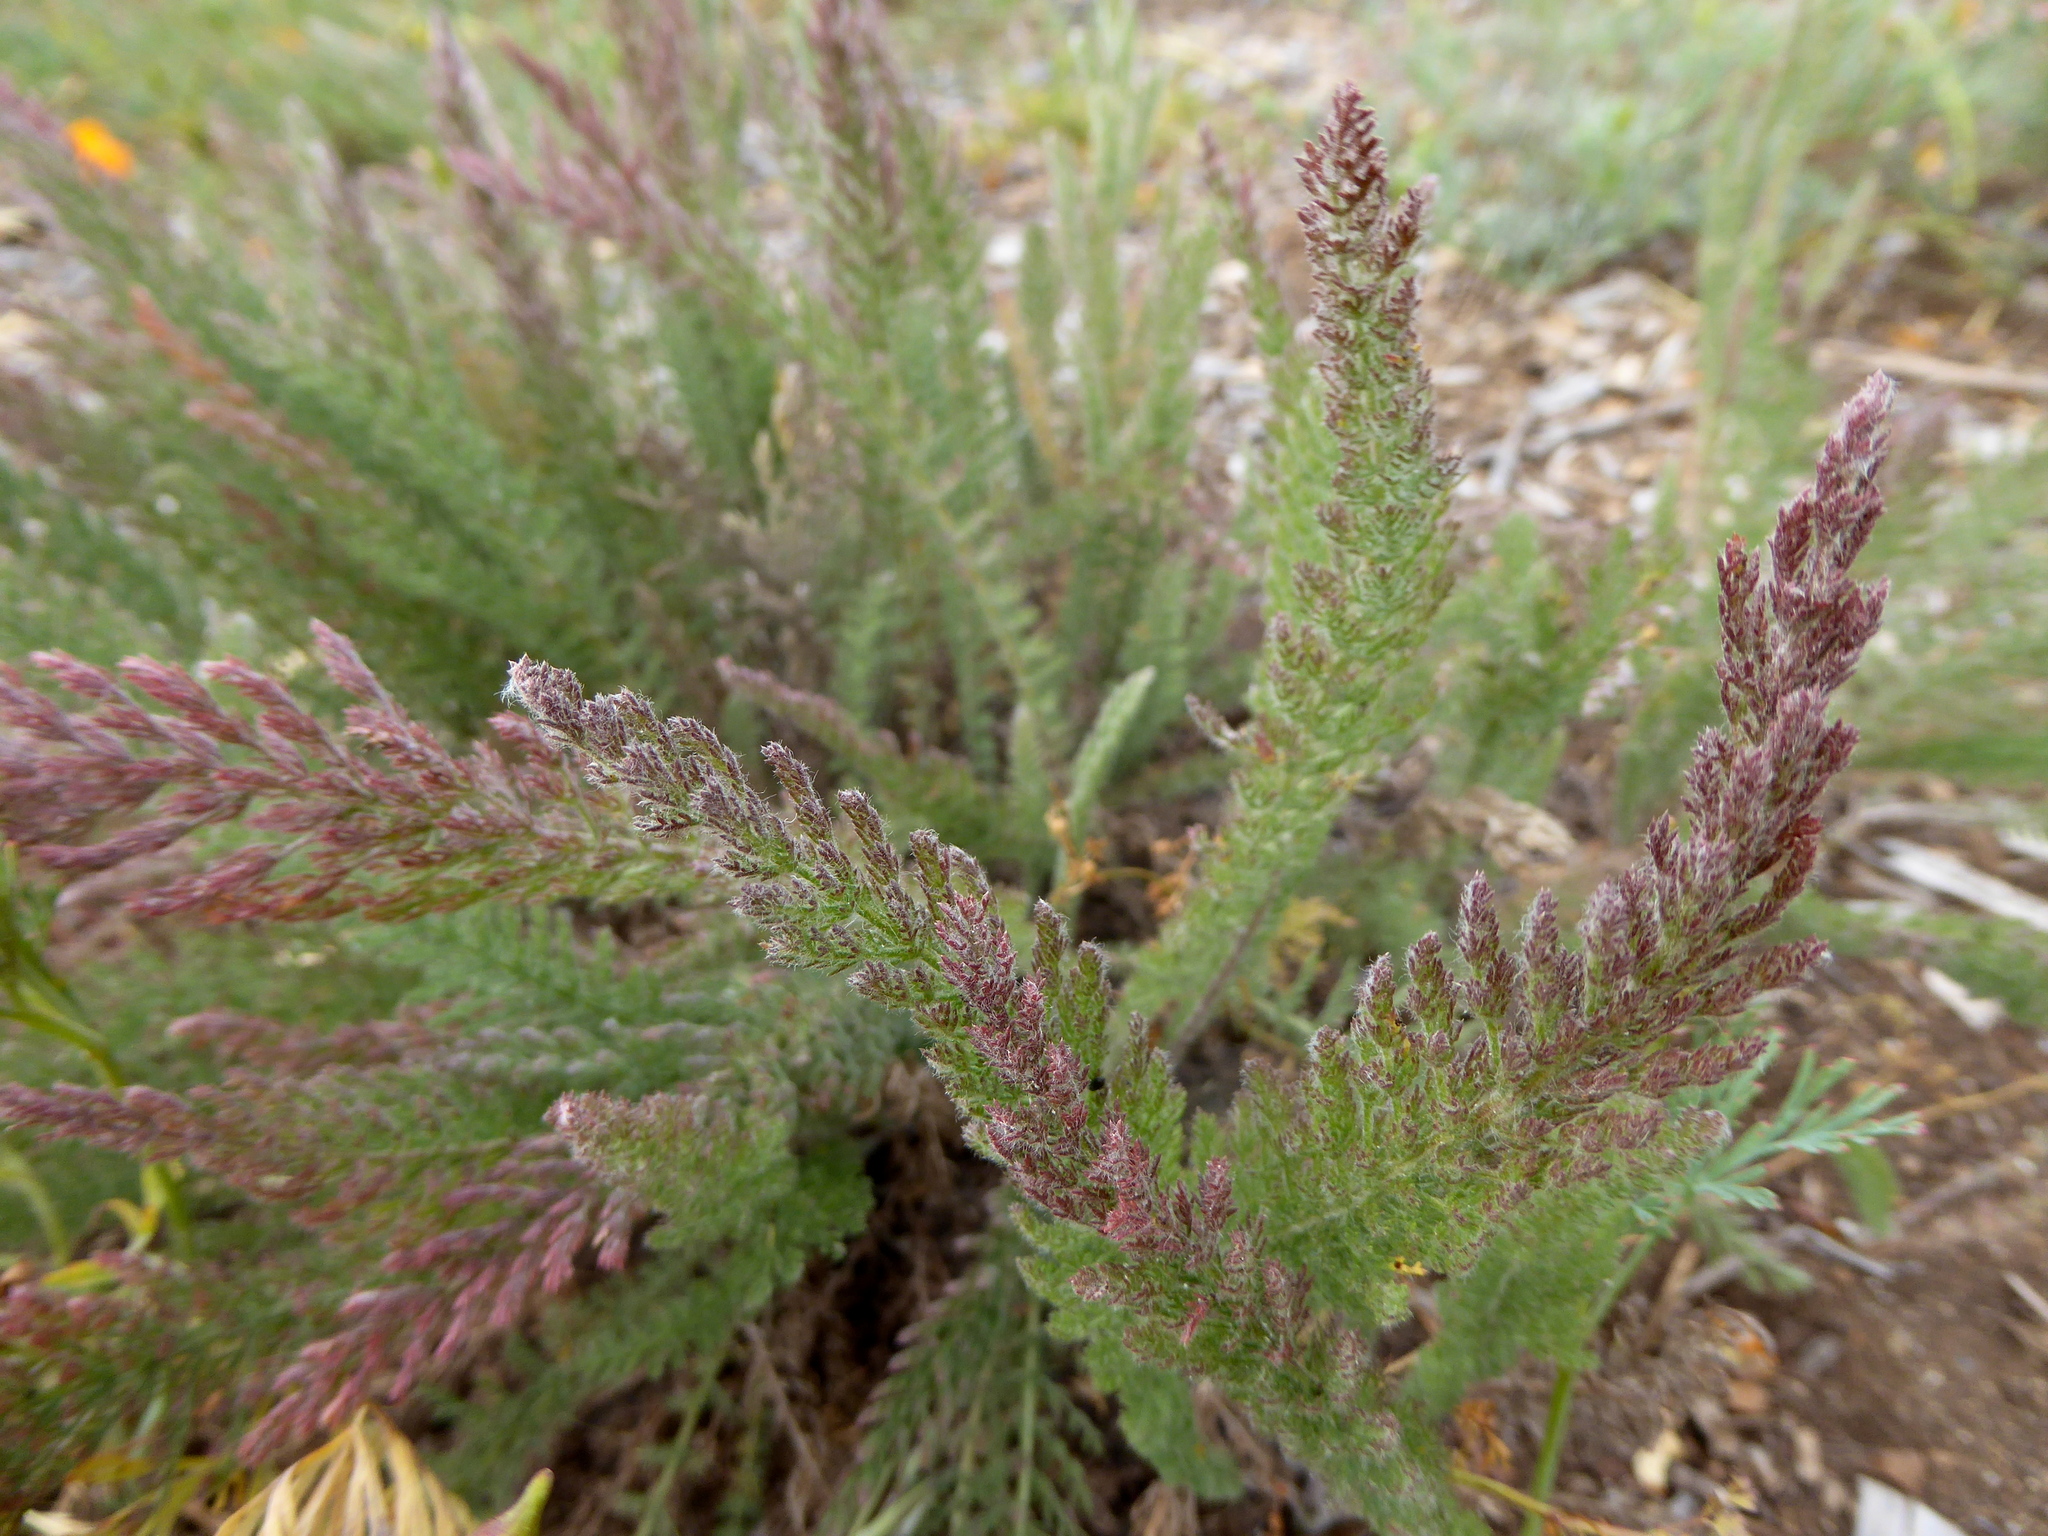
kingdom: Plantae
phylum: Tracheophyta
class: Magnoliopsida
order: Asterales
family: Asteraceae
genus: Achillea
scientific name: Achillea millefolium
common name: Yarrow
